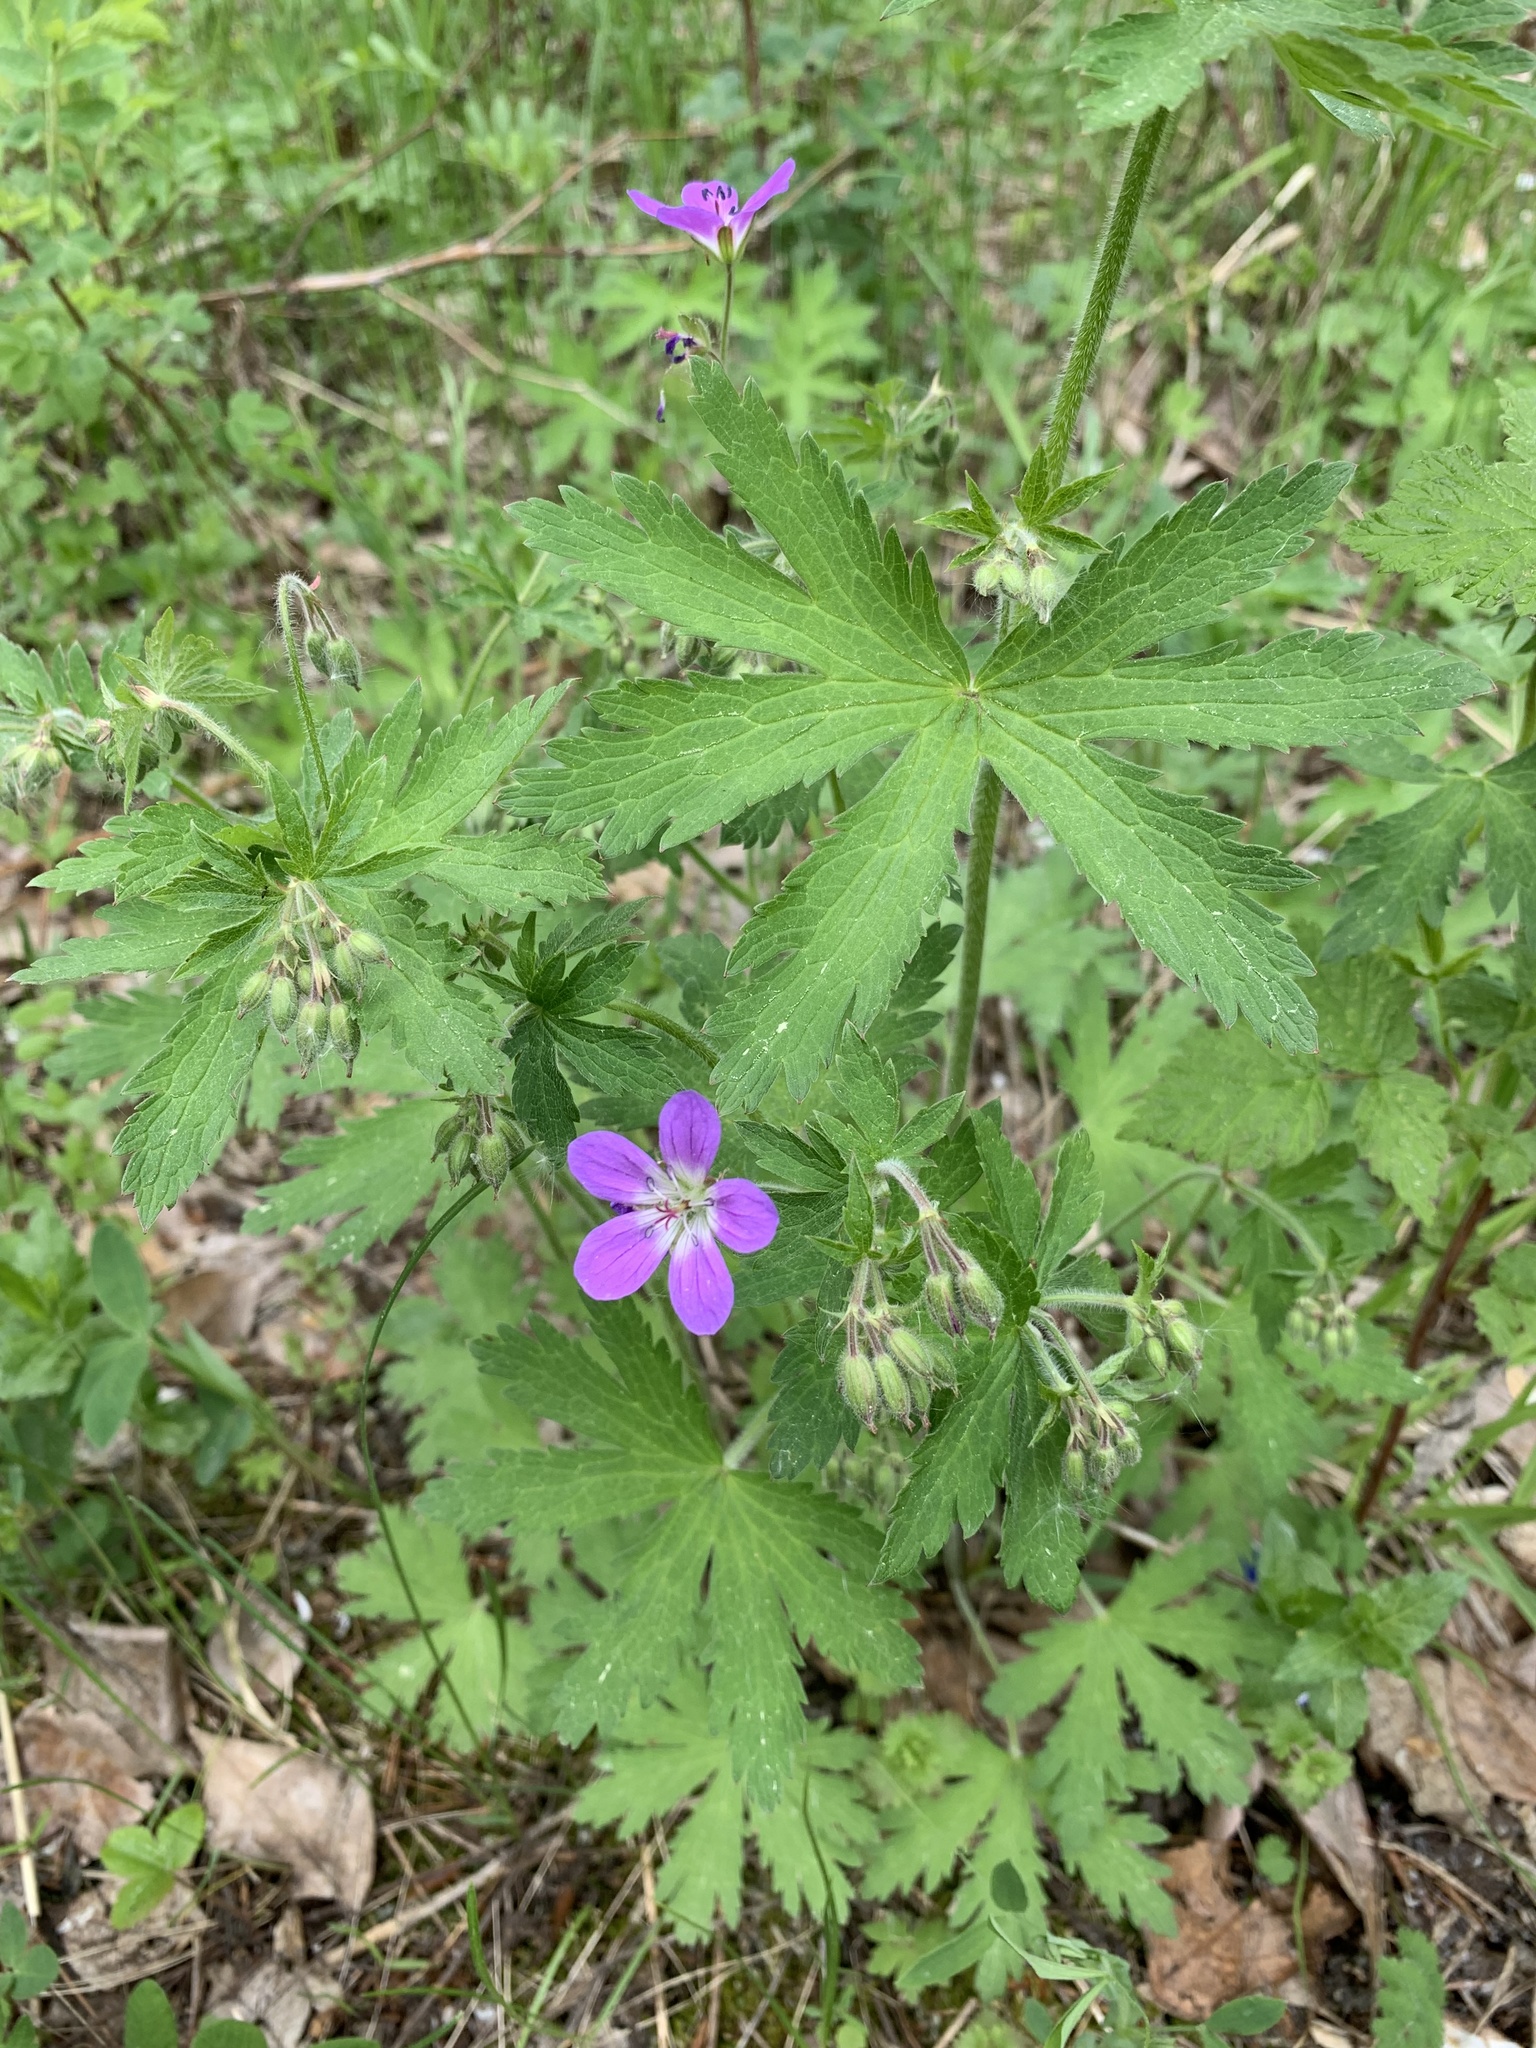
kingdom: Plantae
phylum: Tracheophyta
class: Magnoliopsida
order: Geraniales
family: Geraniaceae
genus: Geranium
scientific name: Geranium sylvaticum
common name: Wood crane's-bill
